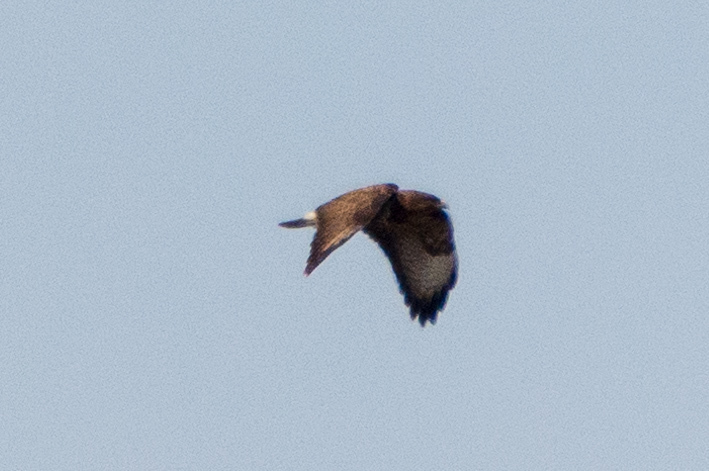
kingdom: Animalia
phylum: Chordata
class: Aves
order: Accipitriformes
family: Accipitridae
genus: Buteo
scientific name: Buteo buteo
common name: Common buzzard
